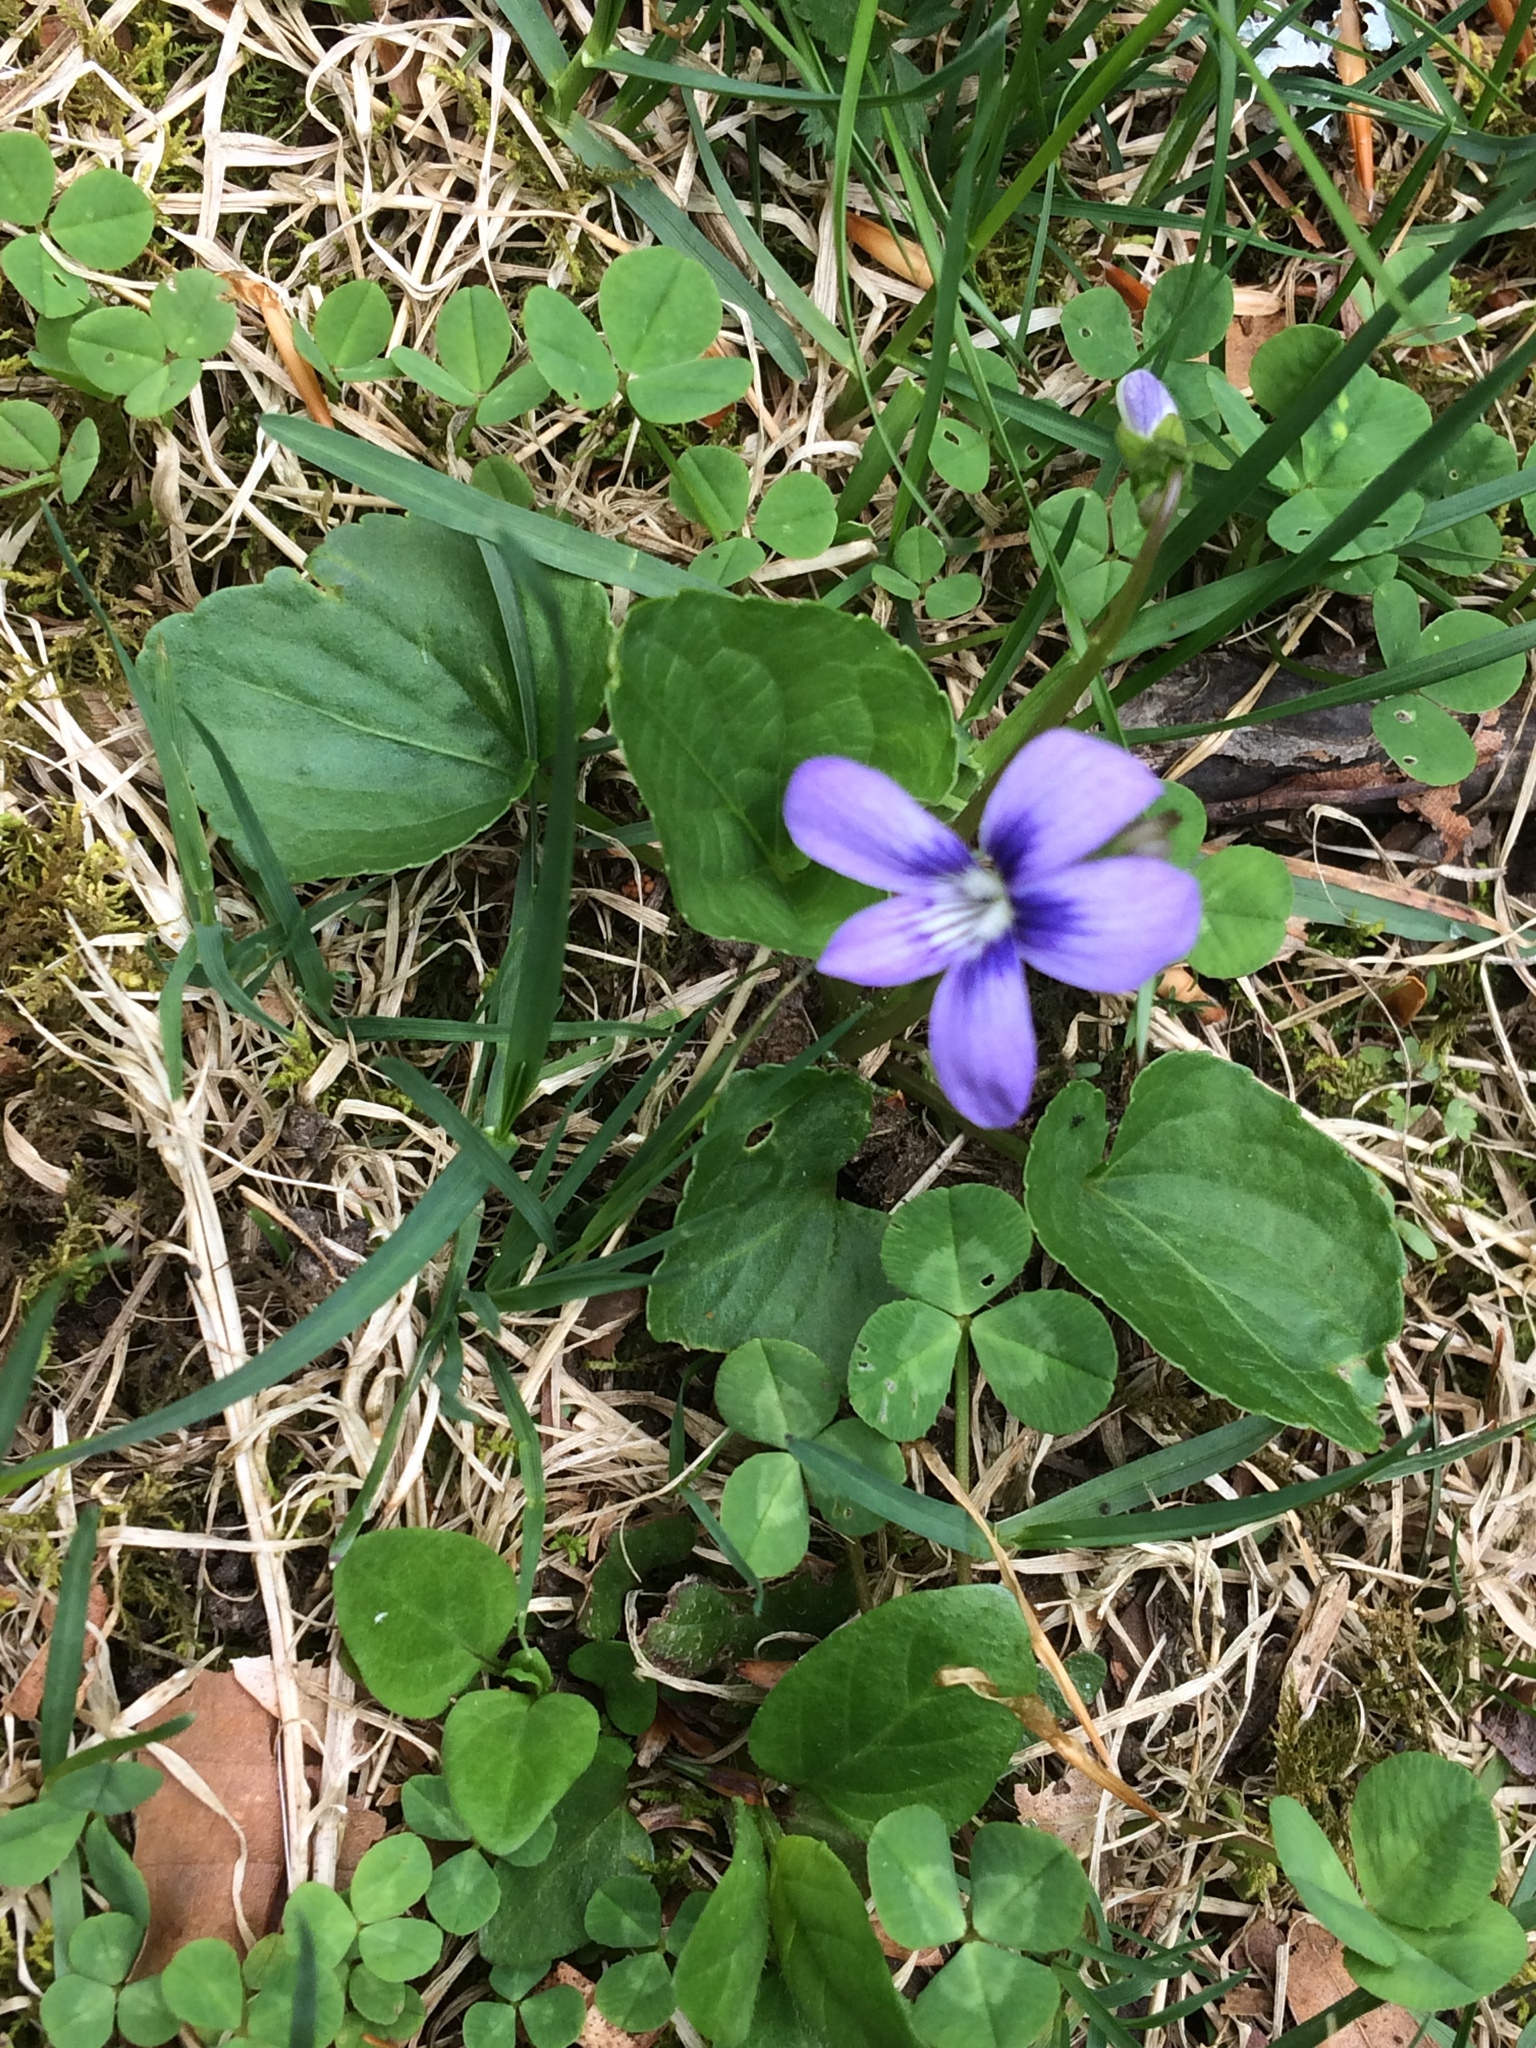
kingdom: Plantae
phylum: Tracheophyta
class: Magnoliopsida
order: Malpighiales
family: Violaceae
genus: Viola
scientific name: Viola sororia
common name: Dooryard violet
